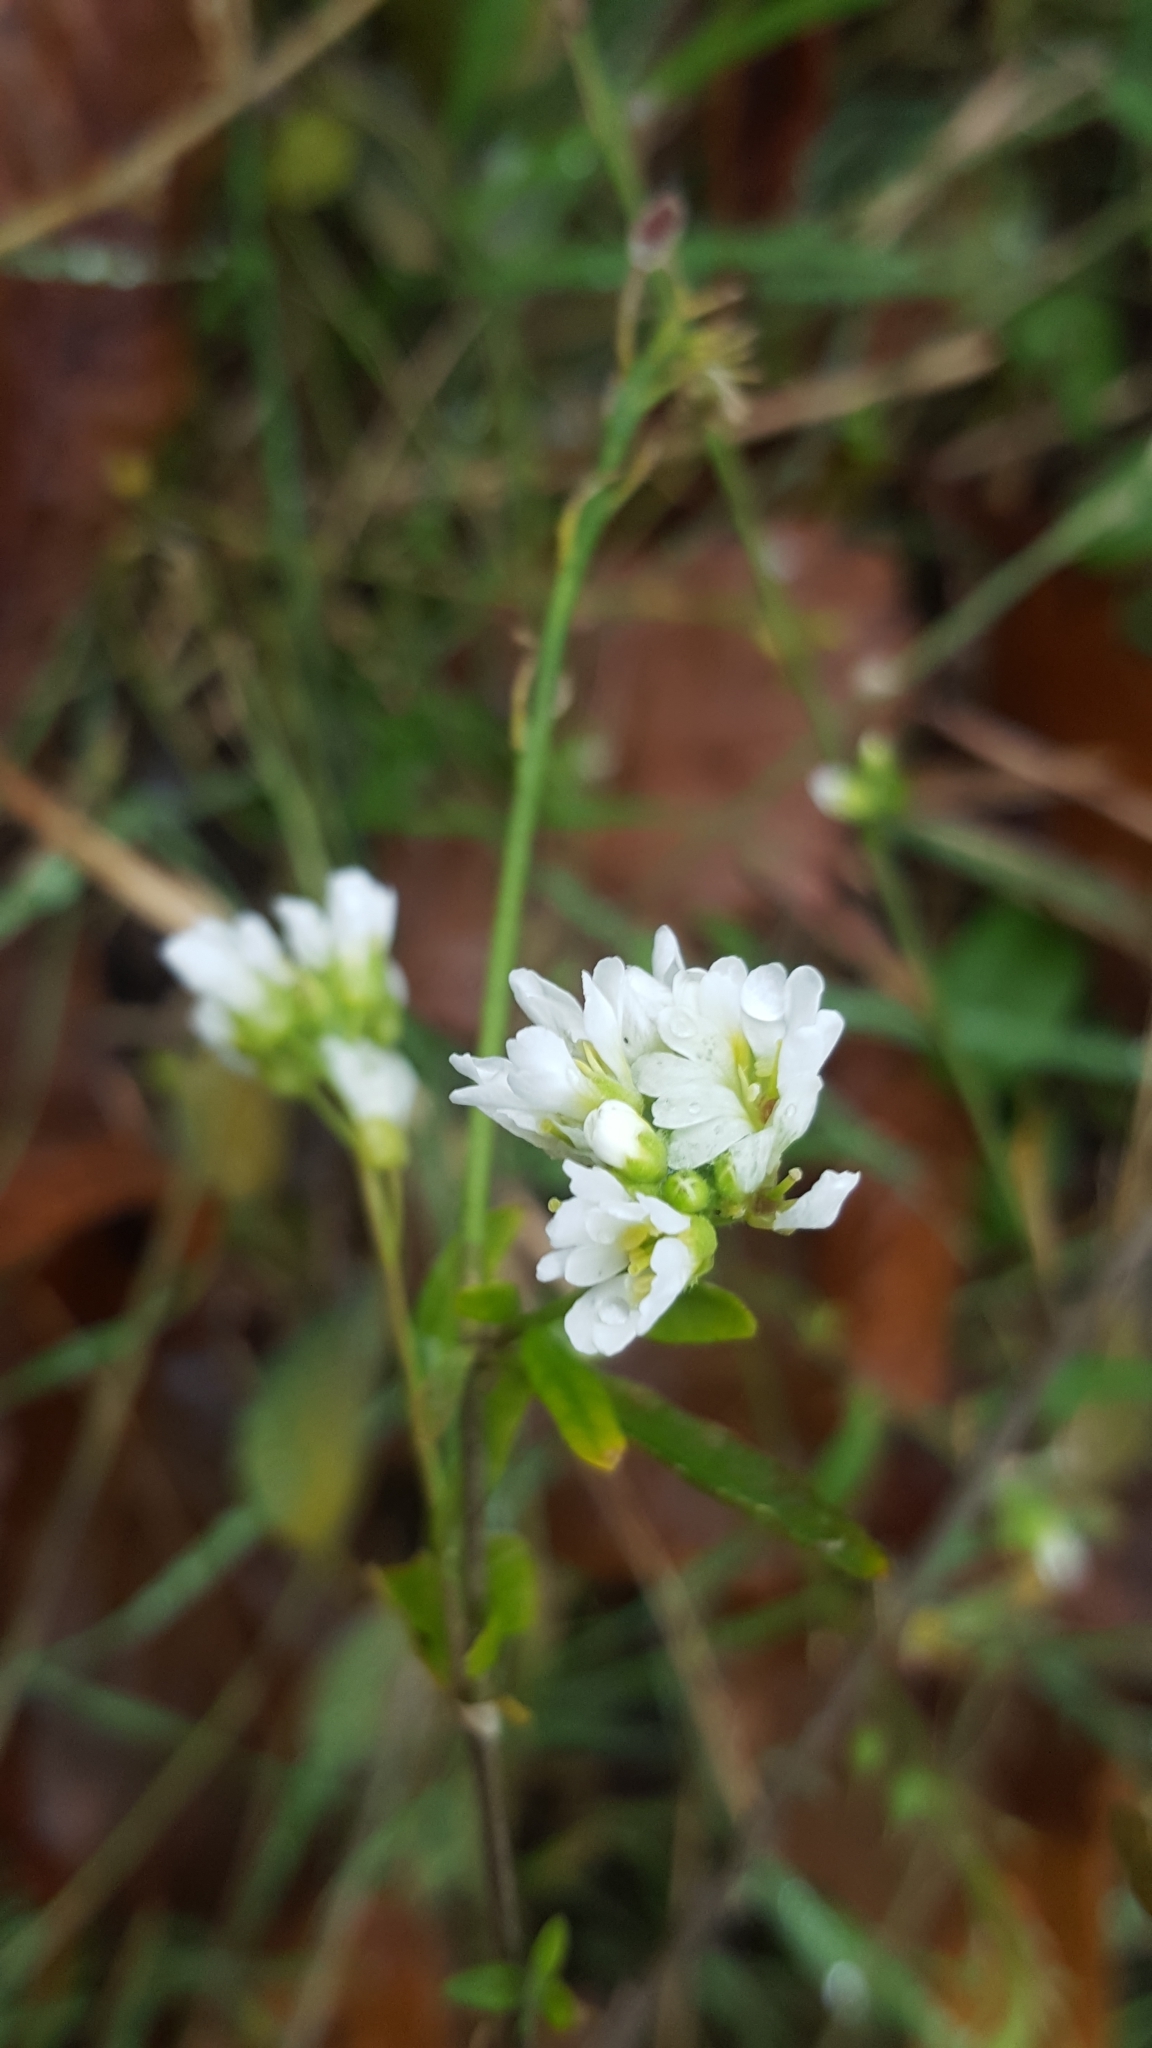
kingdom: Plantae
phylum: Tracheophyta
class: Magnoliopsida
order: Brassicales
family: Brassicaceae
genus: Berteroa
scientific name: Berteroa incana
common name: Hoary alison
